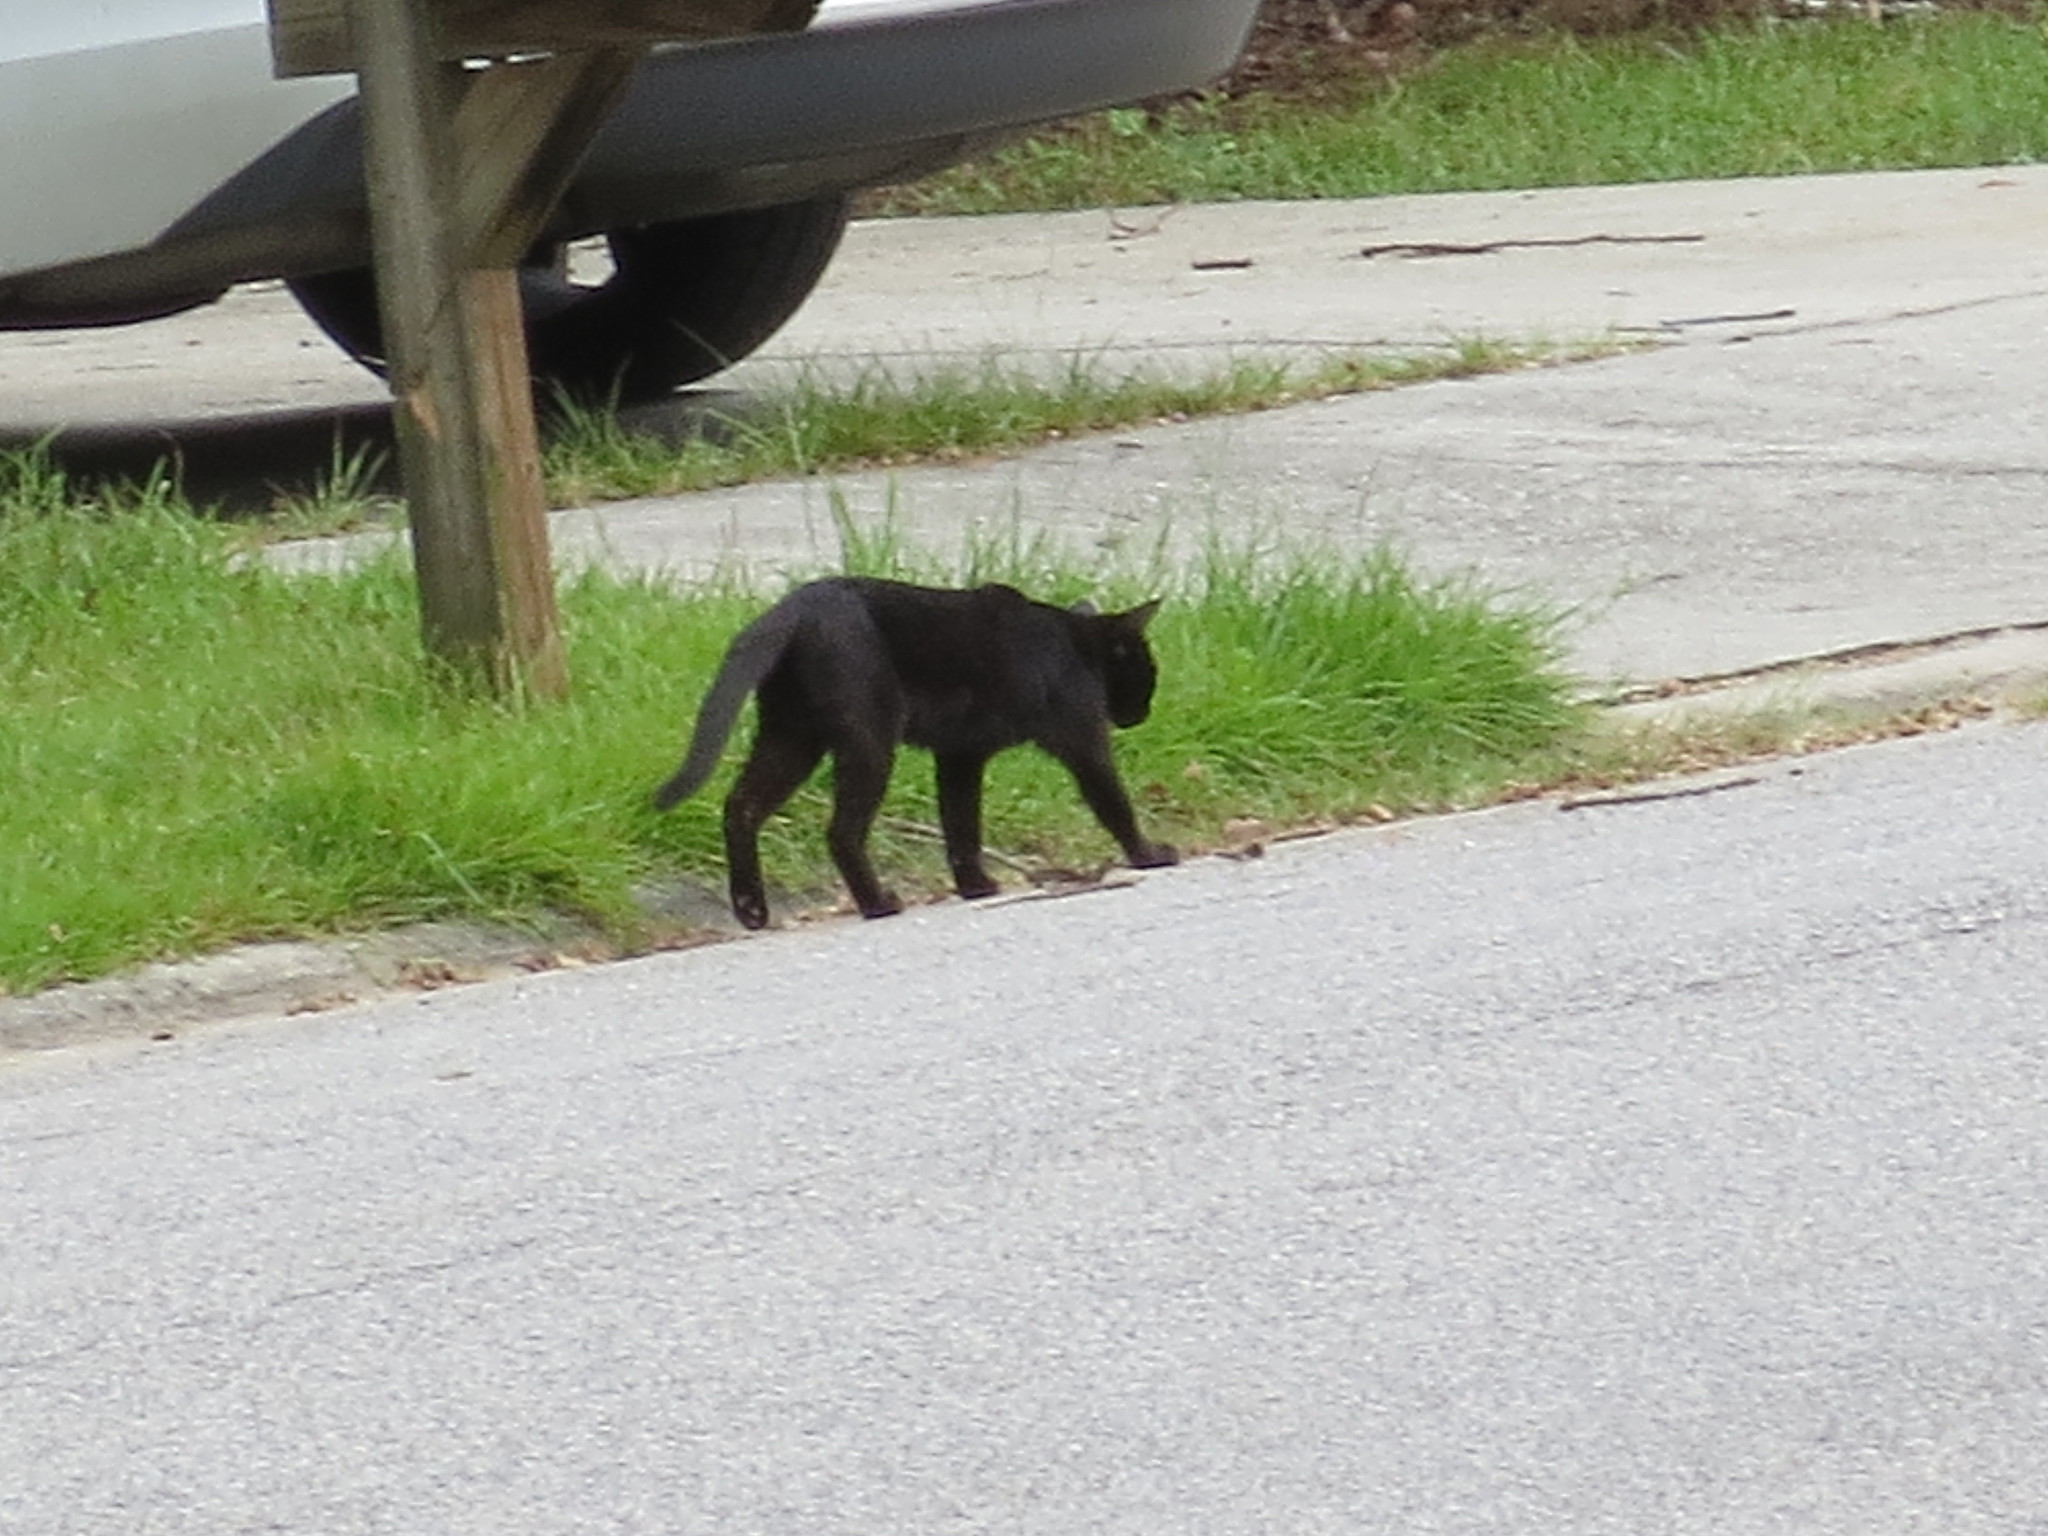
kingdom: Animalia
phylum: Chordata
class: Mammalia
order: Carnivora
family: Felidae
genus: Felis
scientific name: Felis catus
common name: Domestic cat
